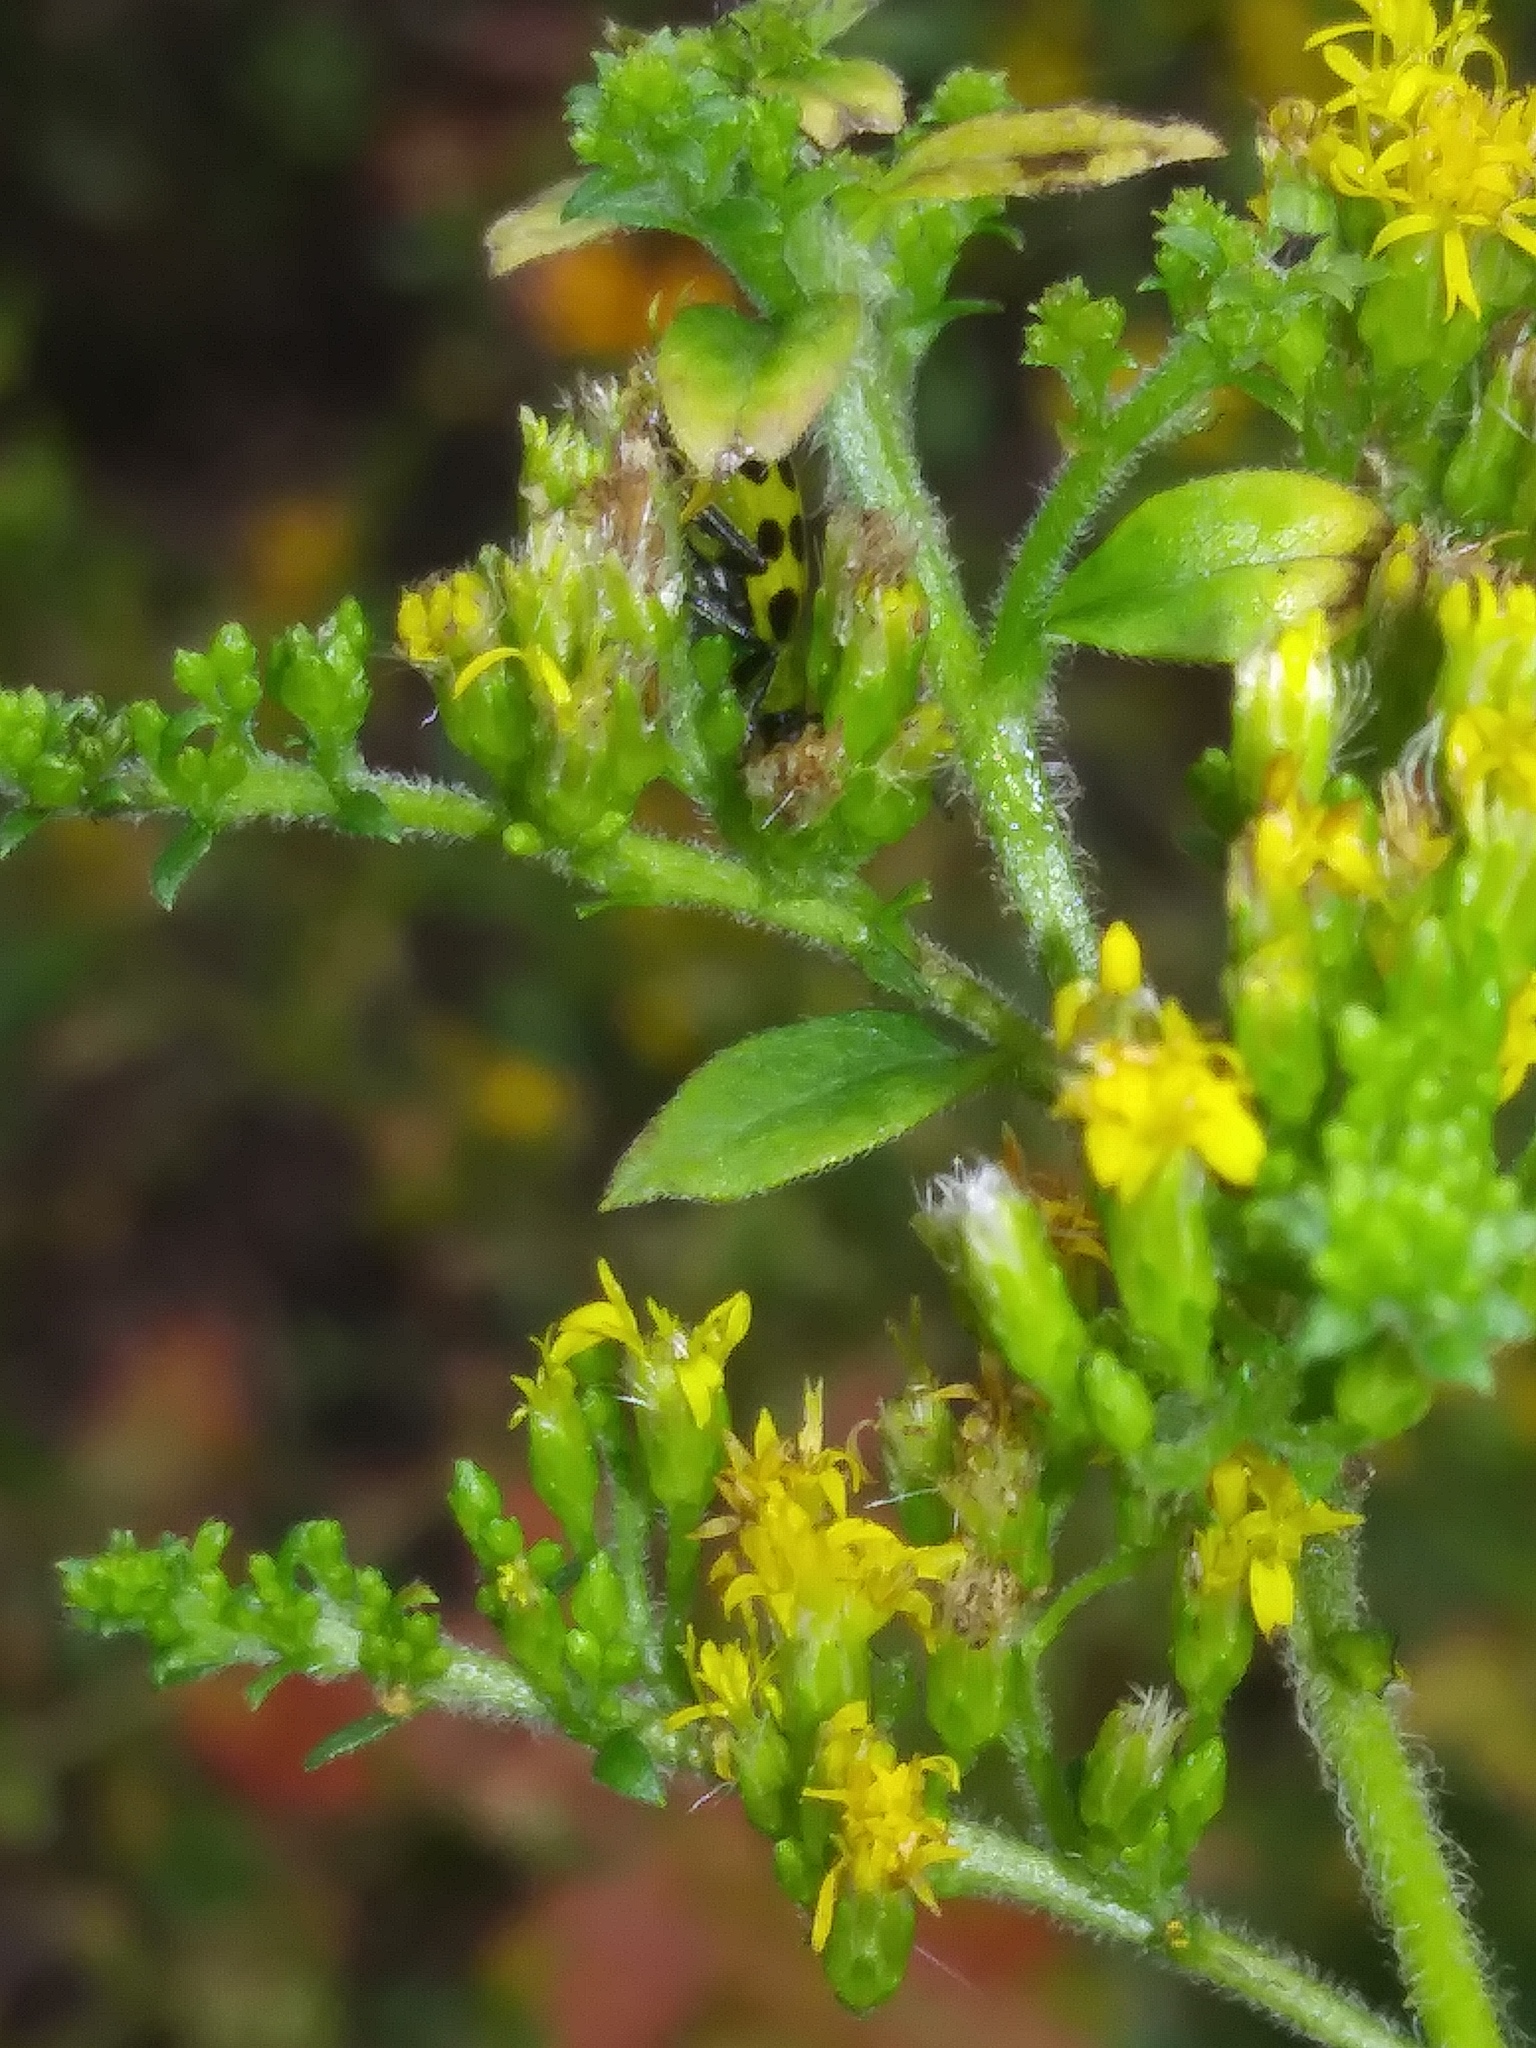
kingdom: Animalia
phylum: Arthropoda
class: Insecta
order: Coleoptera
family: Chrysomelidae
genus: Diabrotica
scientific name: Diabrotica undecimpunctata
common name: Spotted cucumber beetle
